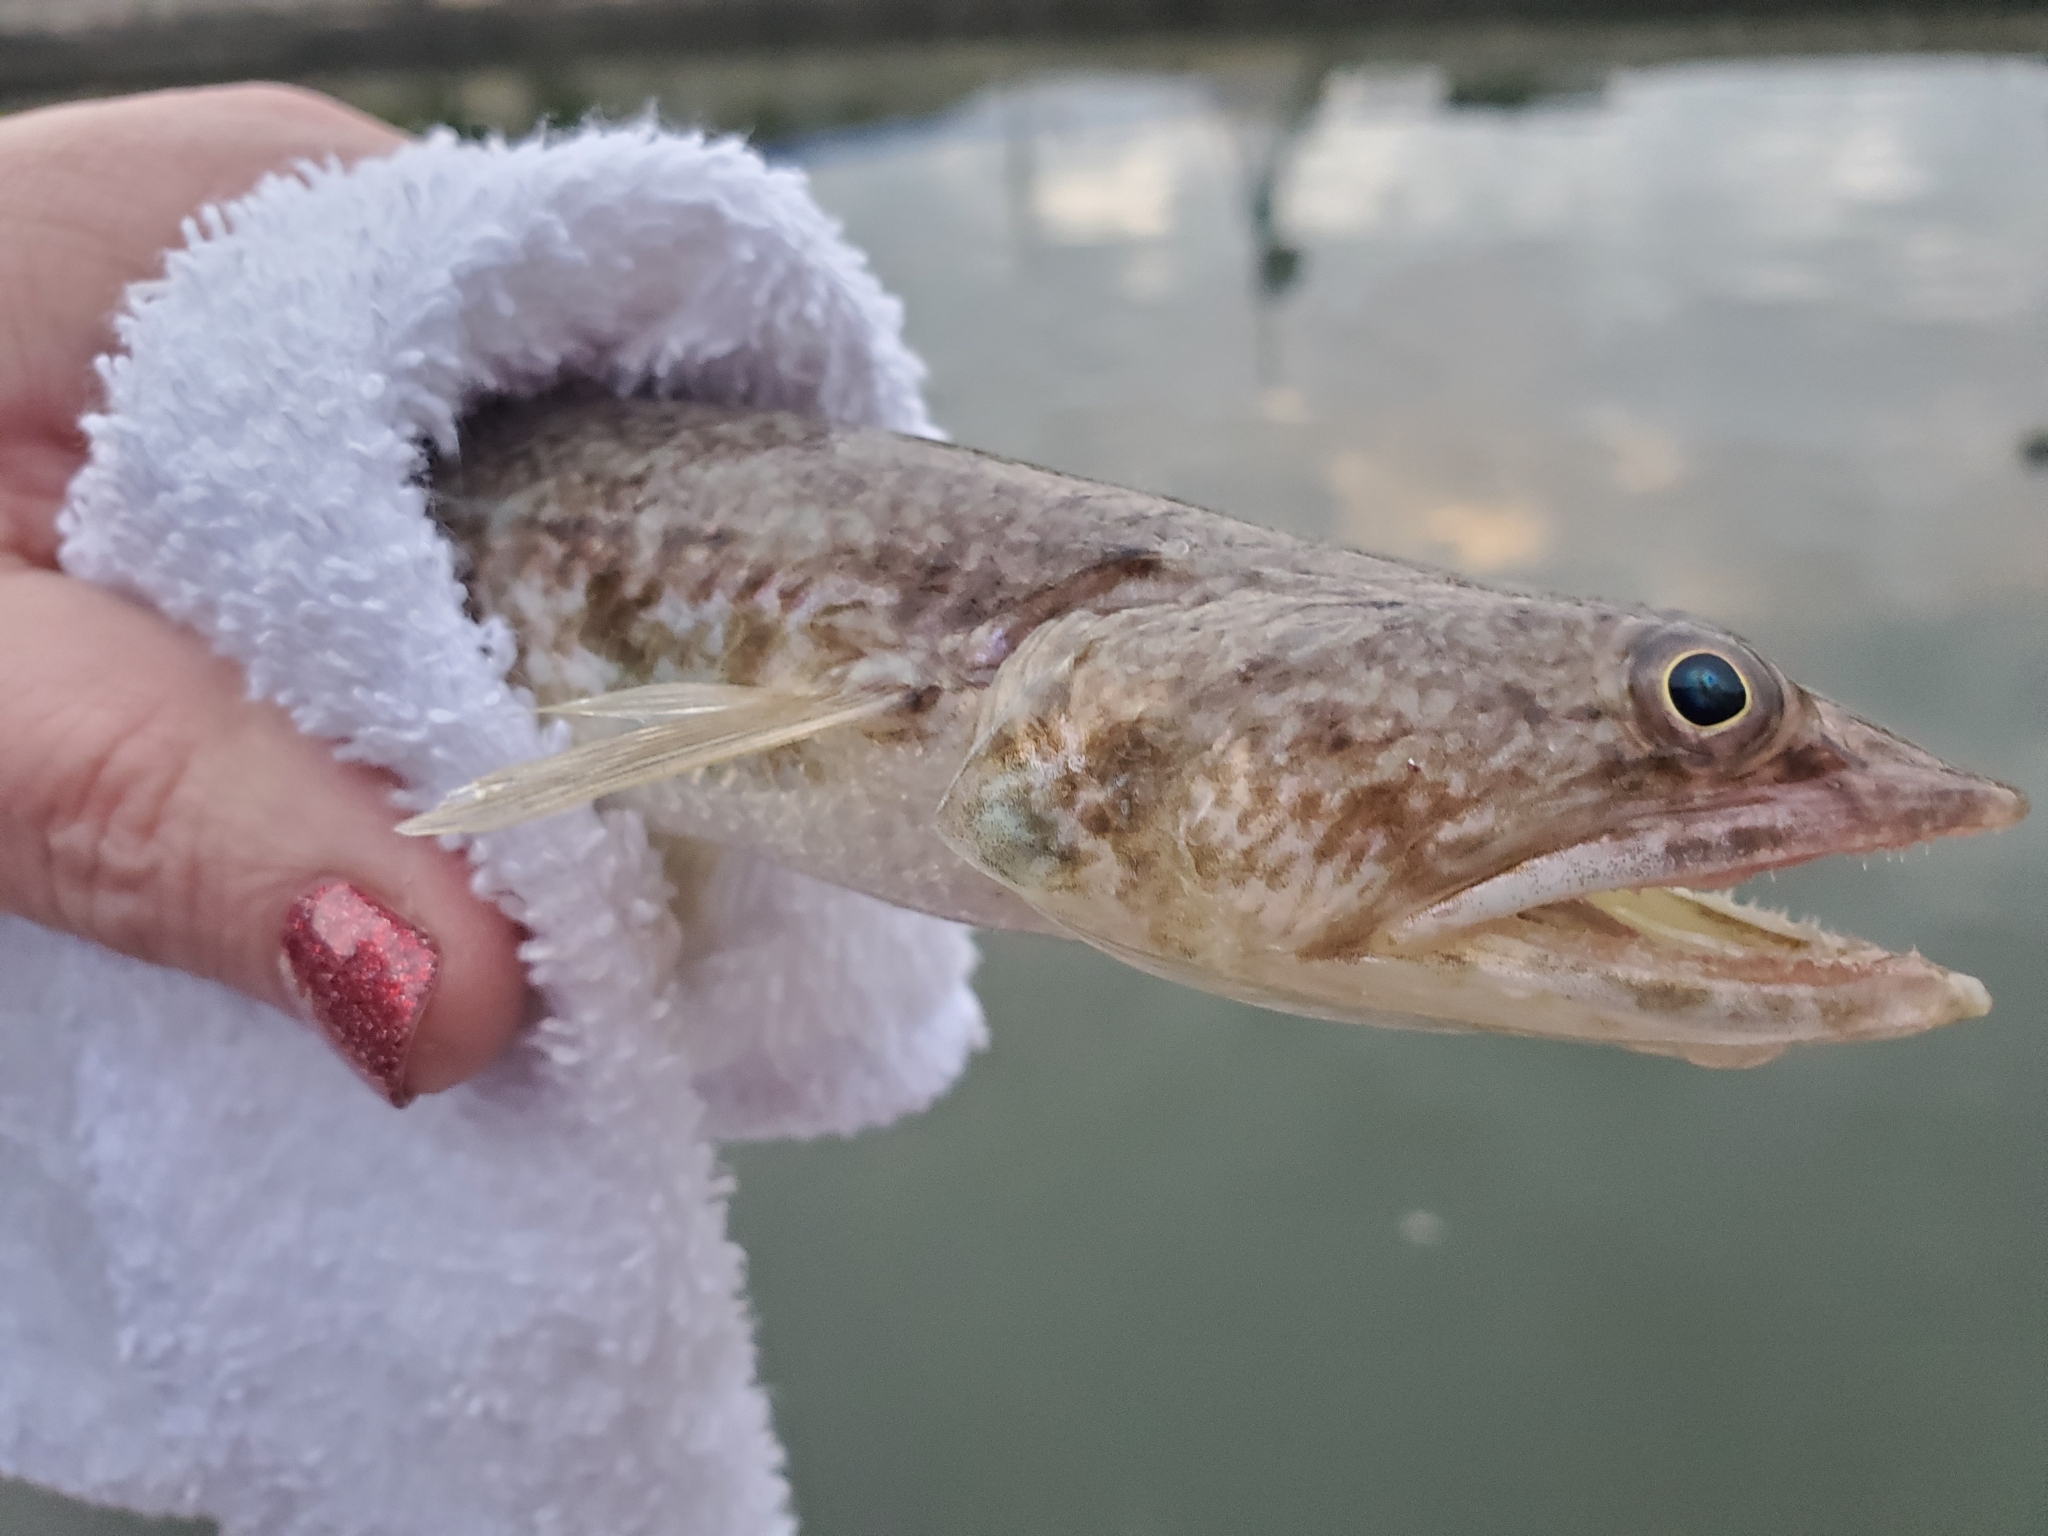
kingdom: Animalia
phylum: Chordata
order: Aulopiformes
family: Synodontidae
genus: Synodus
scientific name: Synodus foetens
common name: Inshore lizardfish
